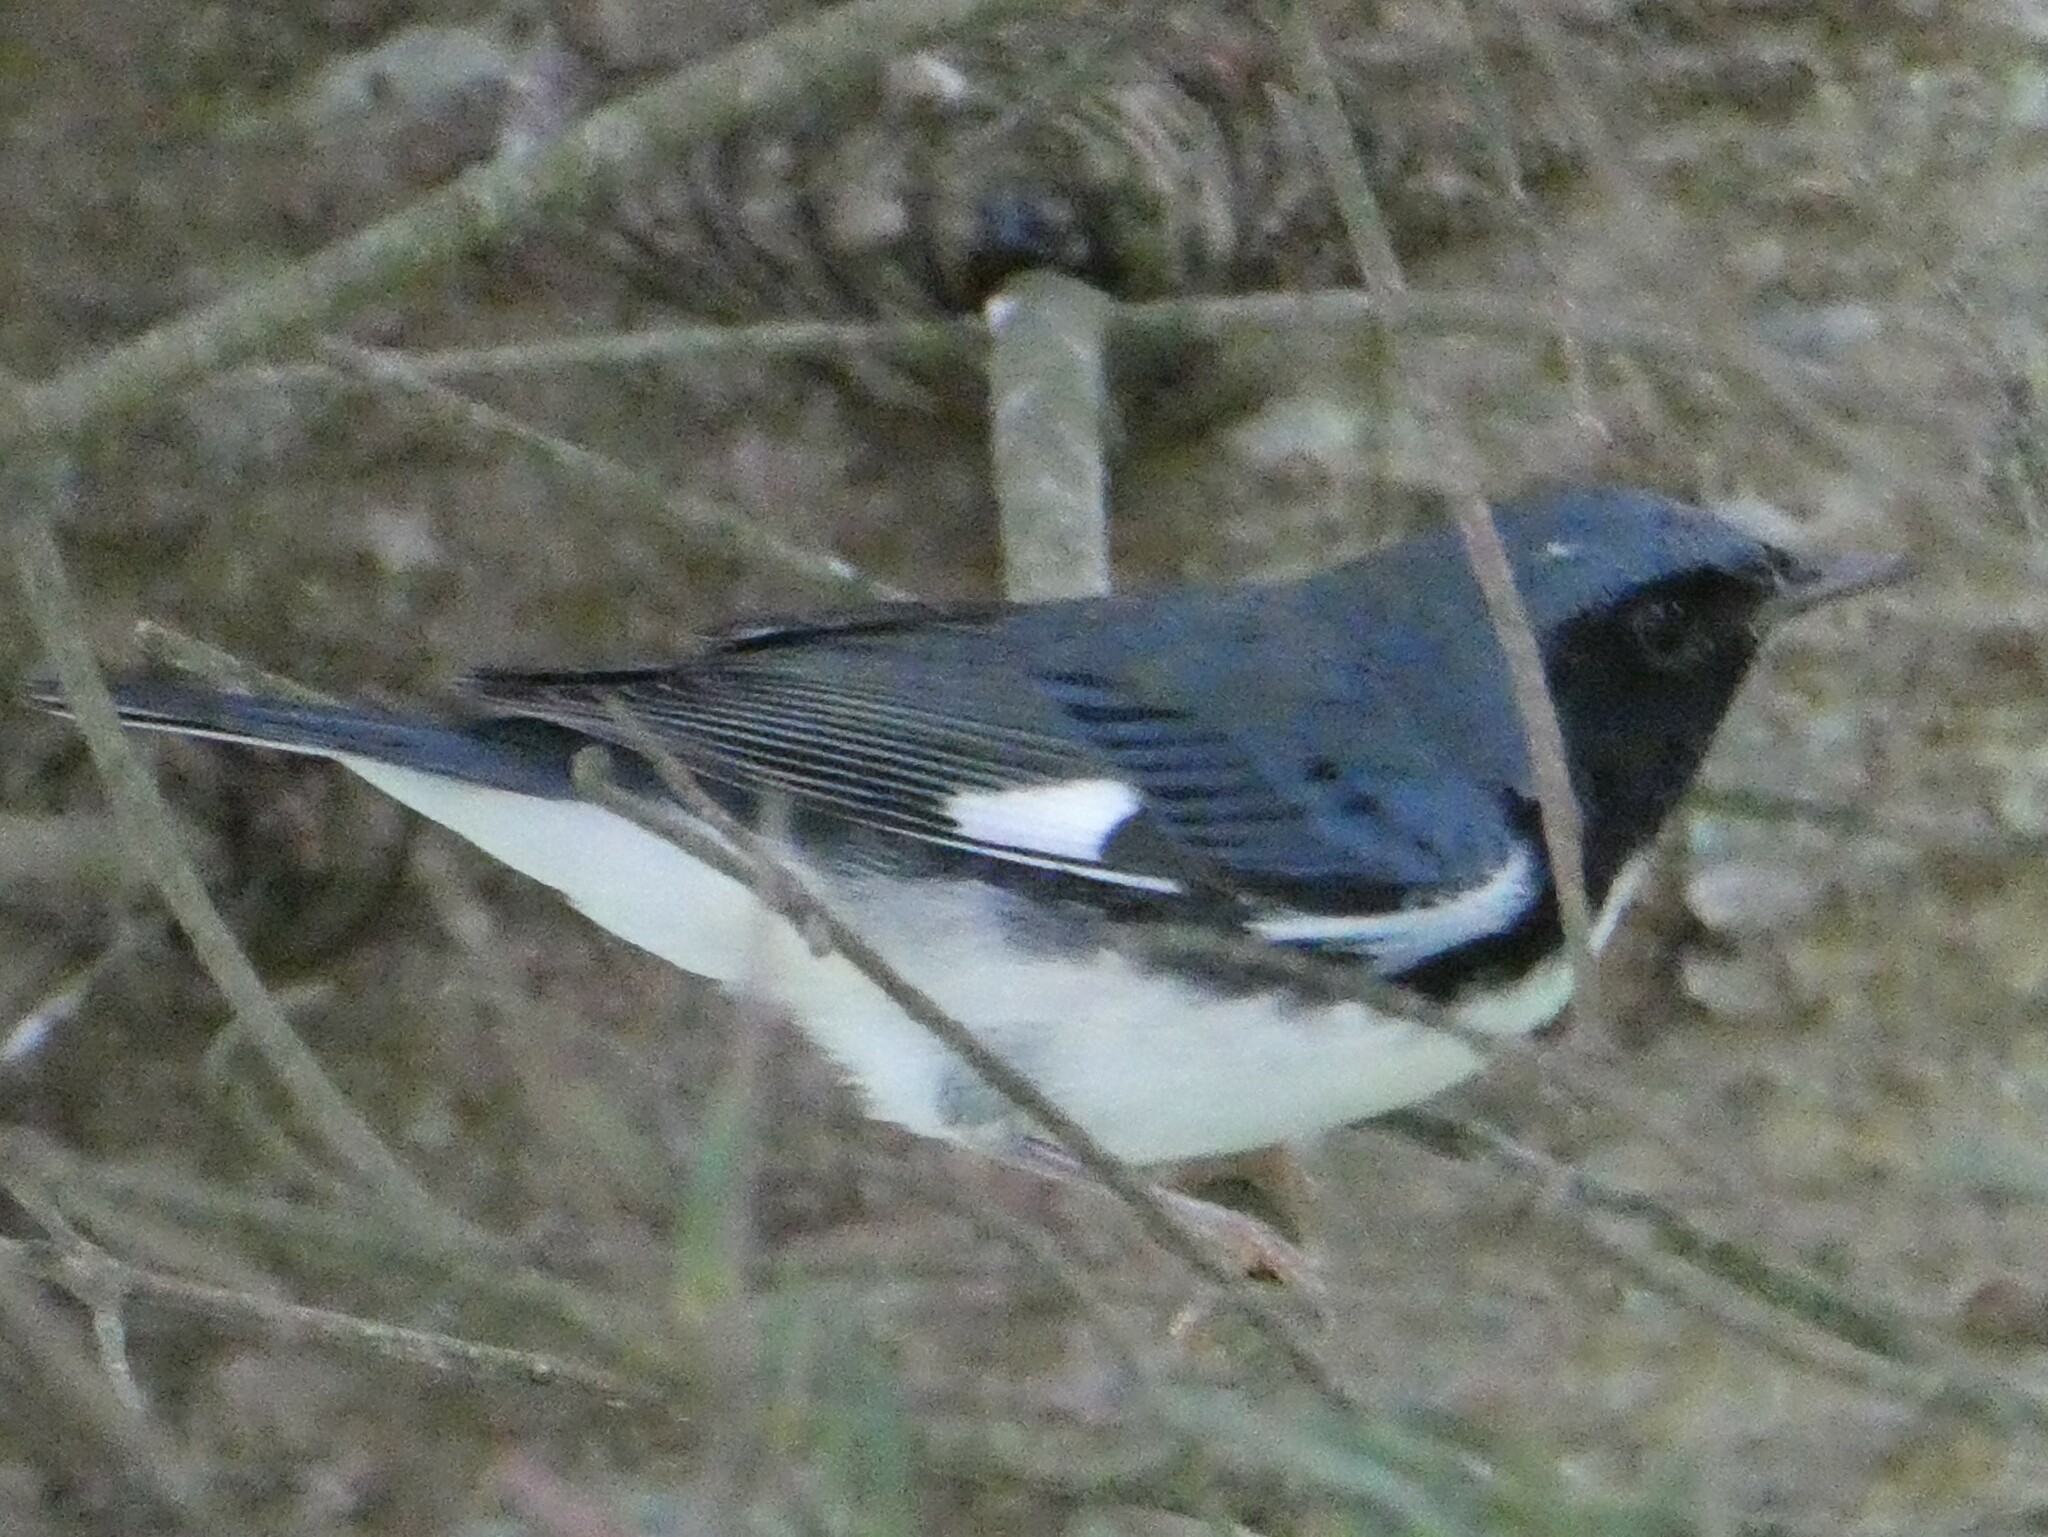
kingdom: Animalia
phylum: Chordata
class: Aves
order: Passeriformes
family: Parulidae
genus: Setophaga
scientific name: Setophaga caerulescens
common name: Black-throated blue warbler
